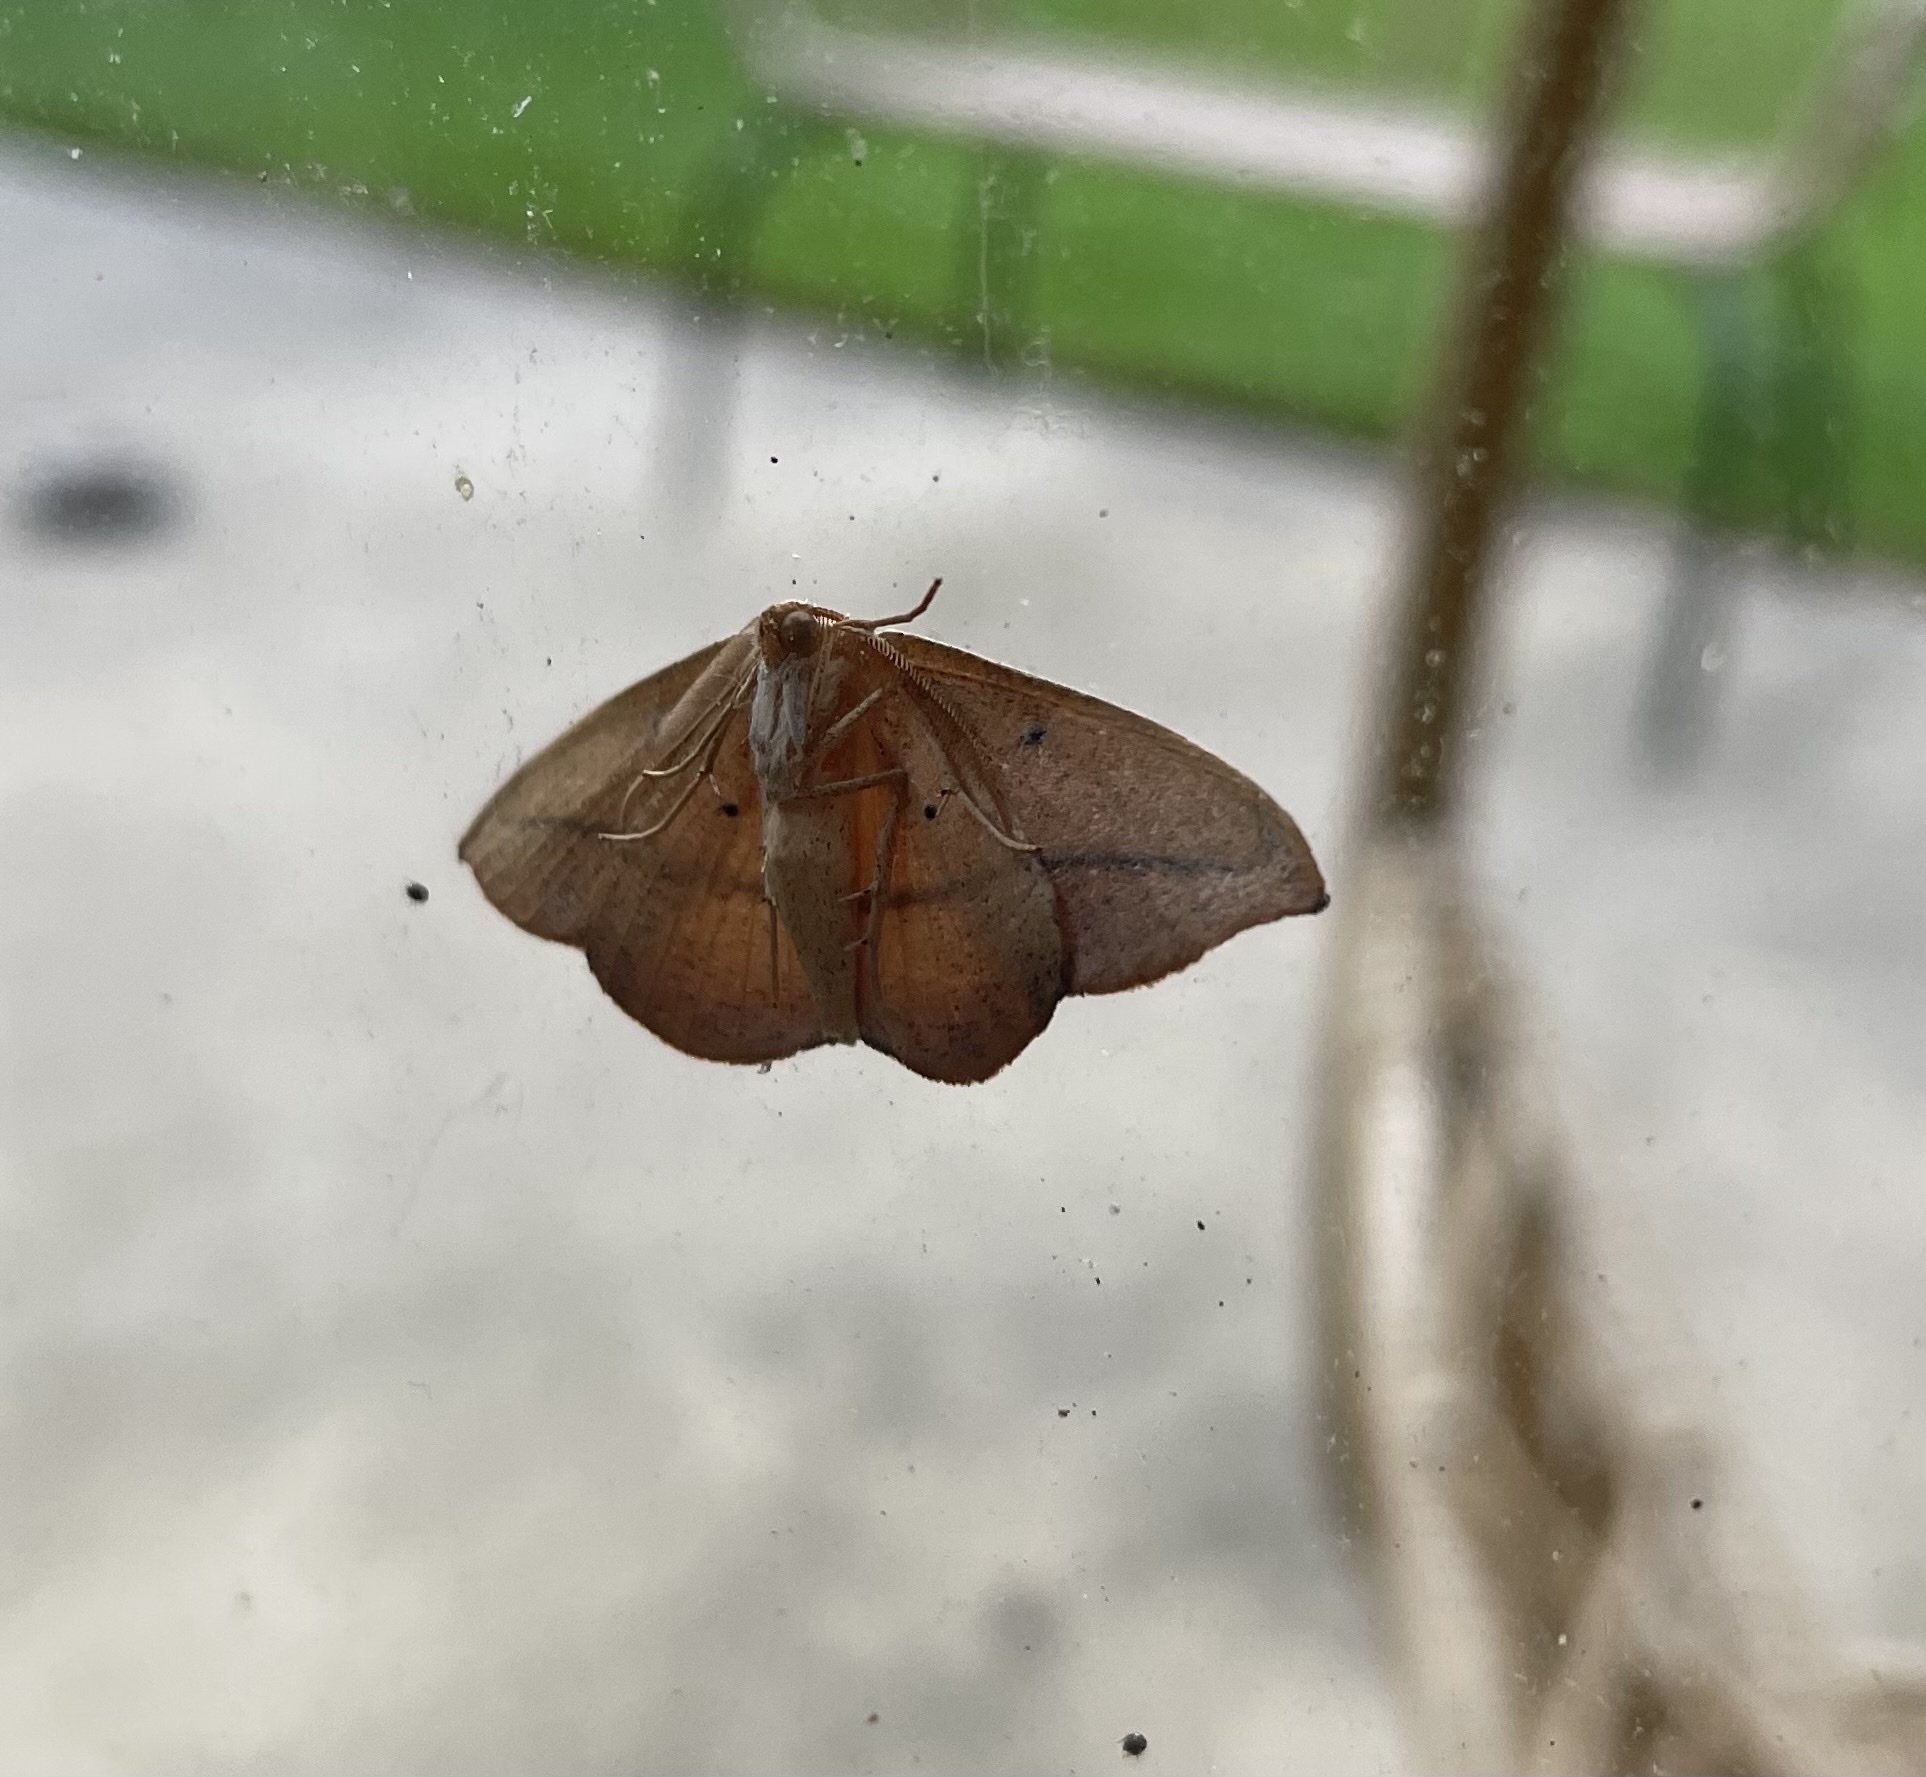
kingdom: Animalia
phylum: Arthropoda
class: Insecta
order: Lepidoptera
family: Geometridae
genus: Patalene
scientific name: Patalene olyzonaria
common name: Juniper geometer moth
